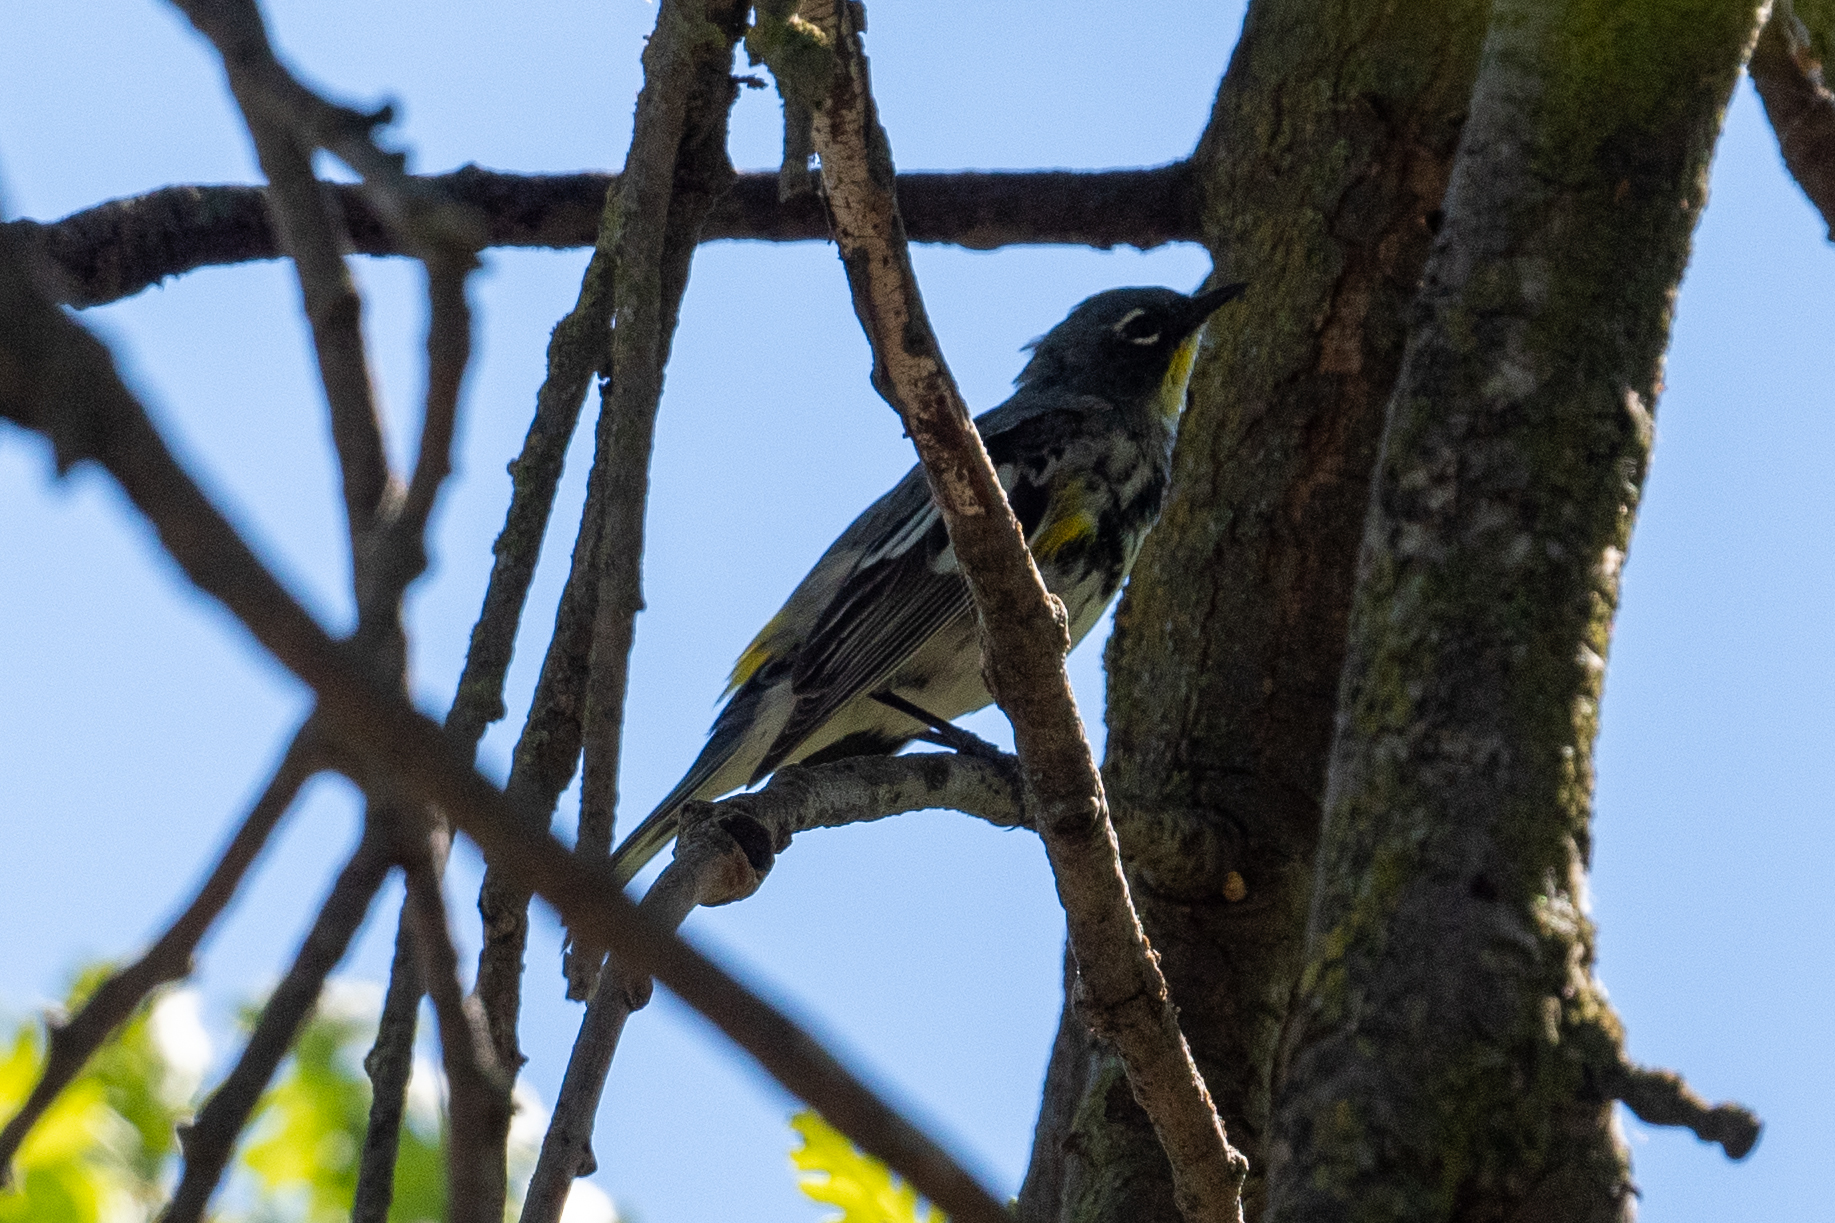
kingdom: Animalia
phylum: Chordata
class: Aves
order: Passeriformes
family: Parulidae
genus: Setophaga
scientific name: Setophaga coronata
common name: Myrtle warbler
